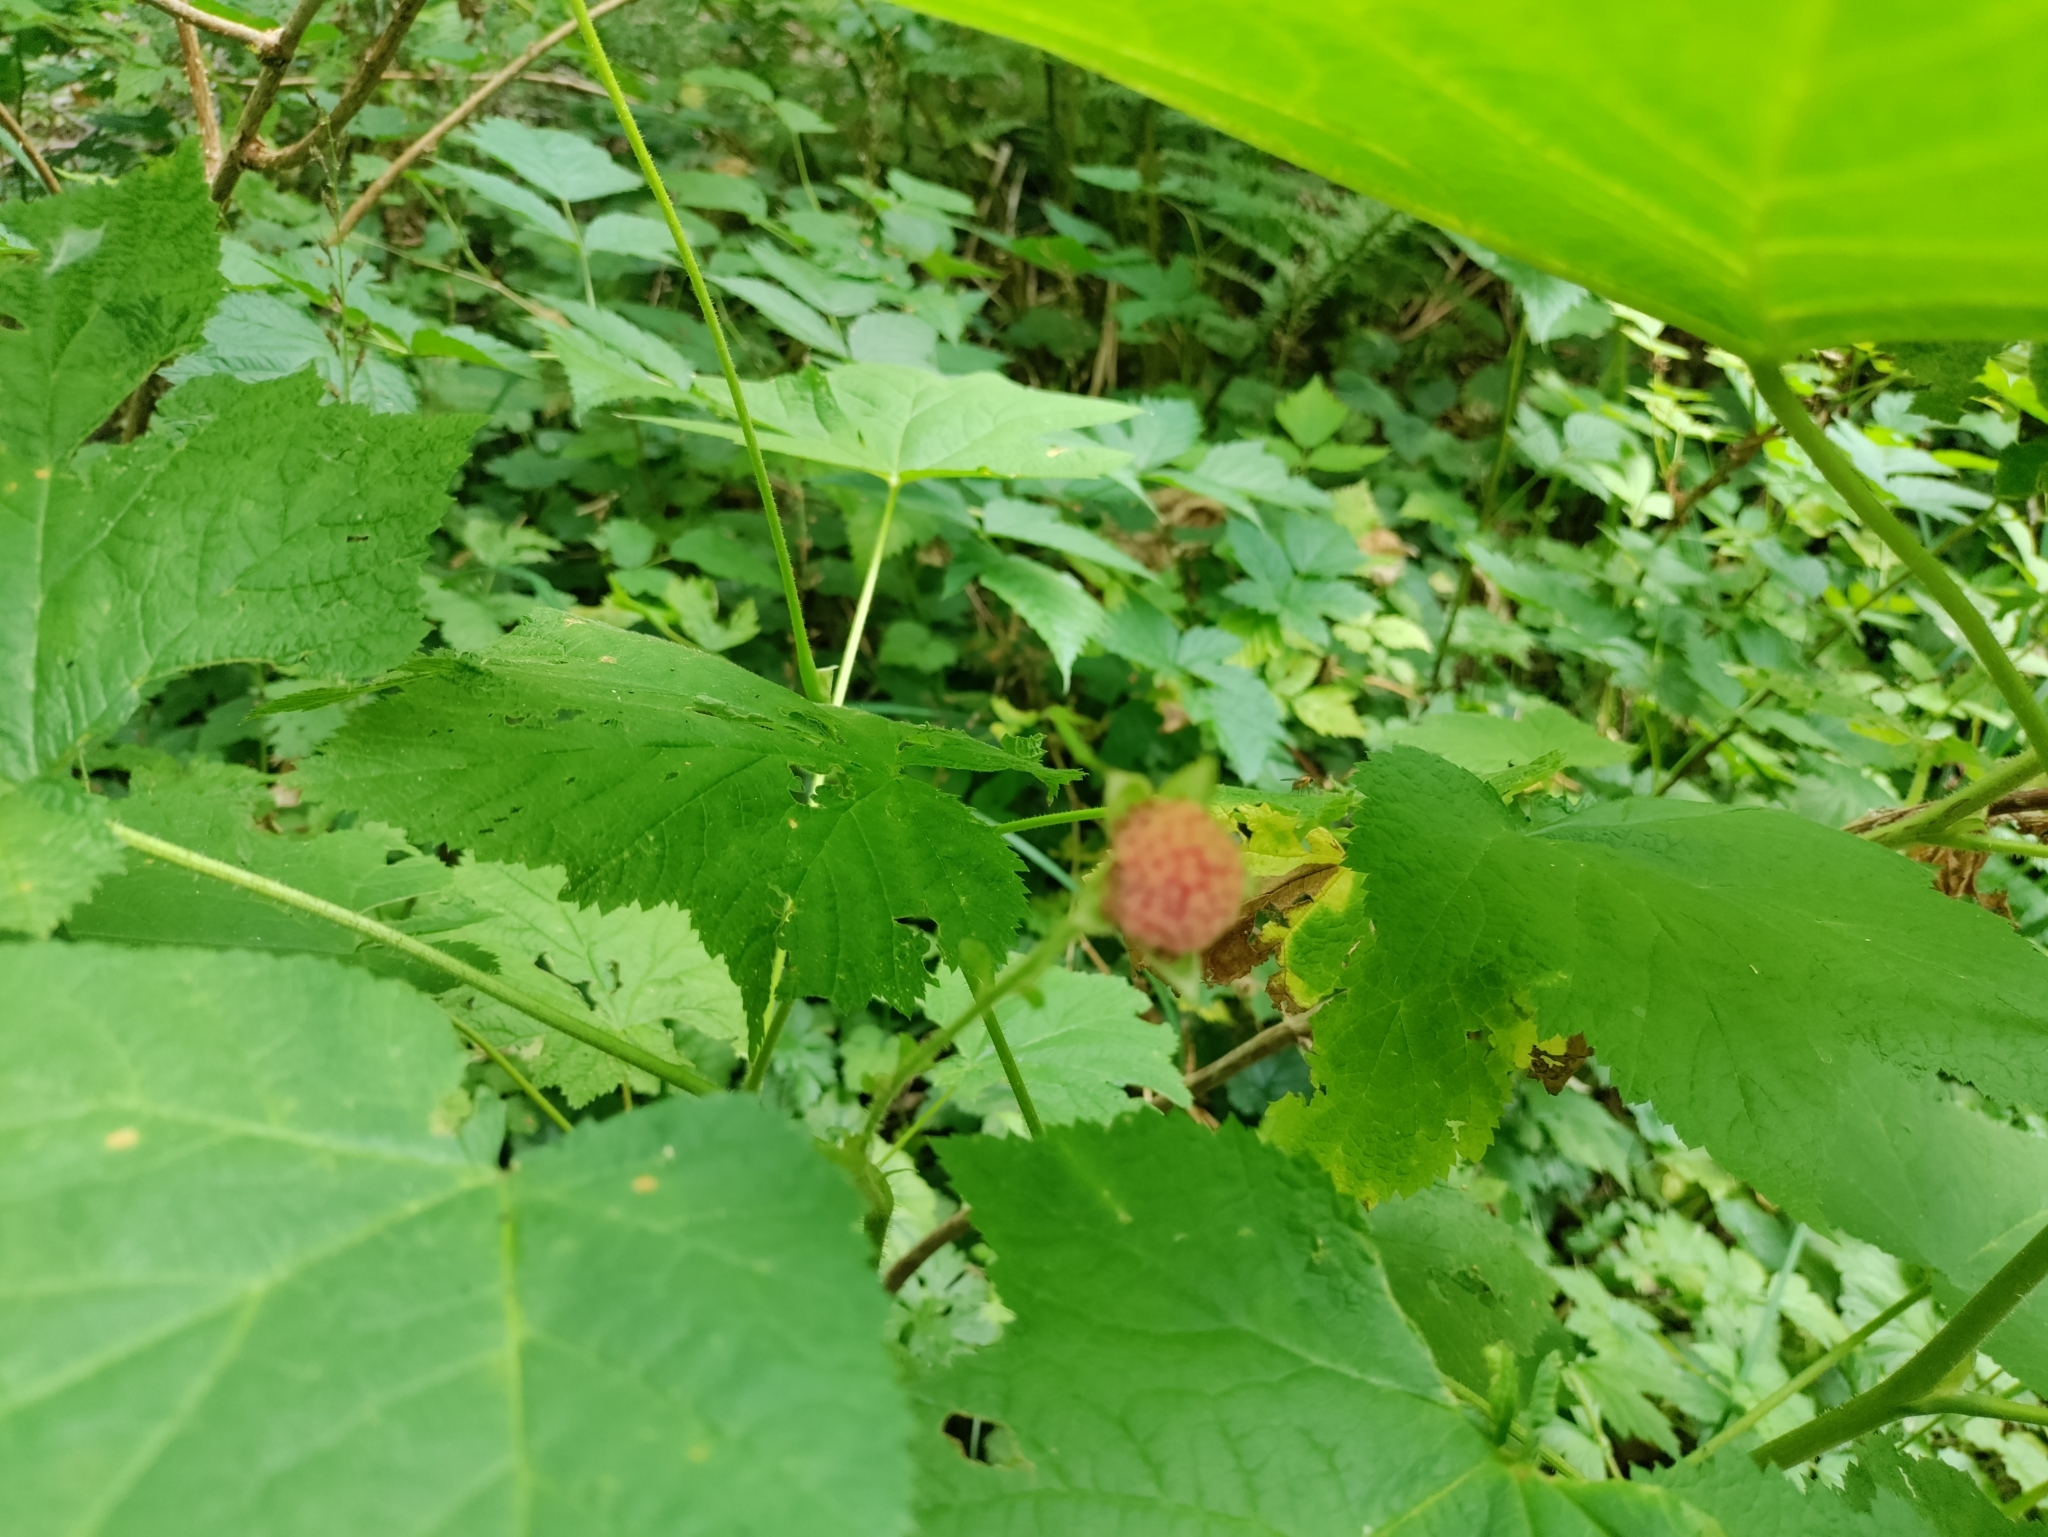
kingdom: Plantae
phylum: Tracheophyta
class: Magnoliopsida
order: Rosales
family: Rosaceae
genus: Rubus
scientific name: Rubus parviflorus
